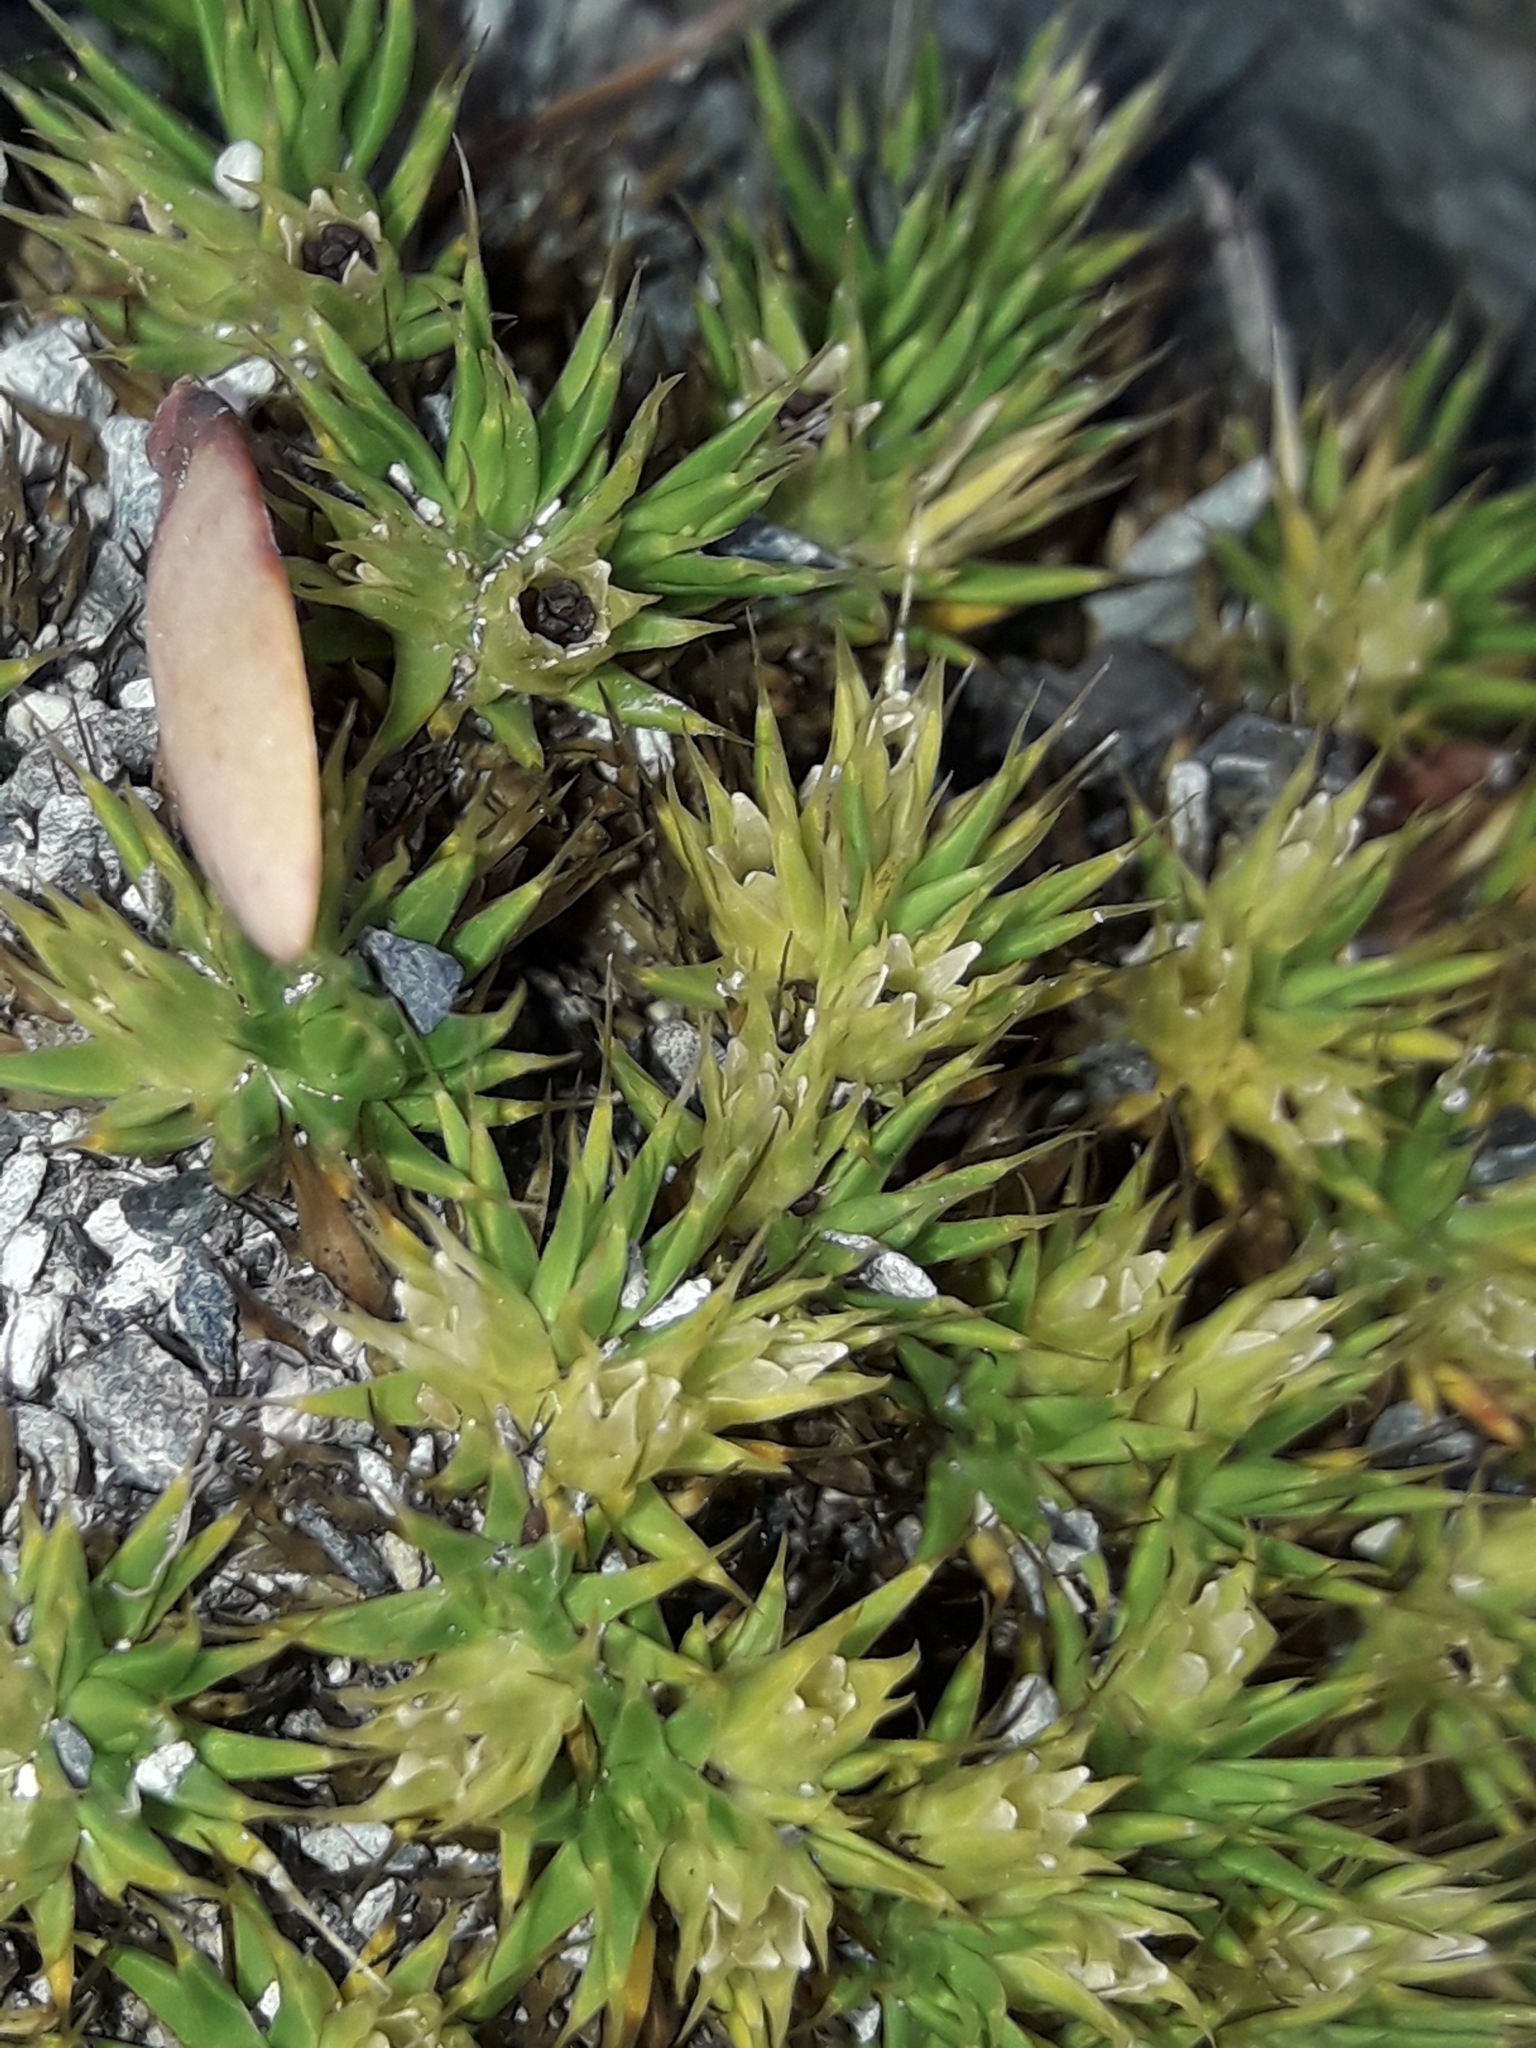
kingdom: Plantae
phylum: Tracheophyta
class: Magnoliopsida
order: Caryophyllales
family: Caryophyllaceae
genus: Colobanthus
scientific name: Colobanthus acicularis
